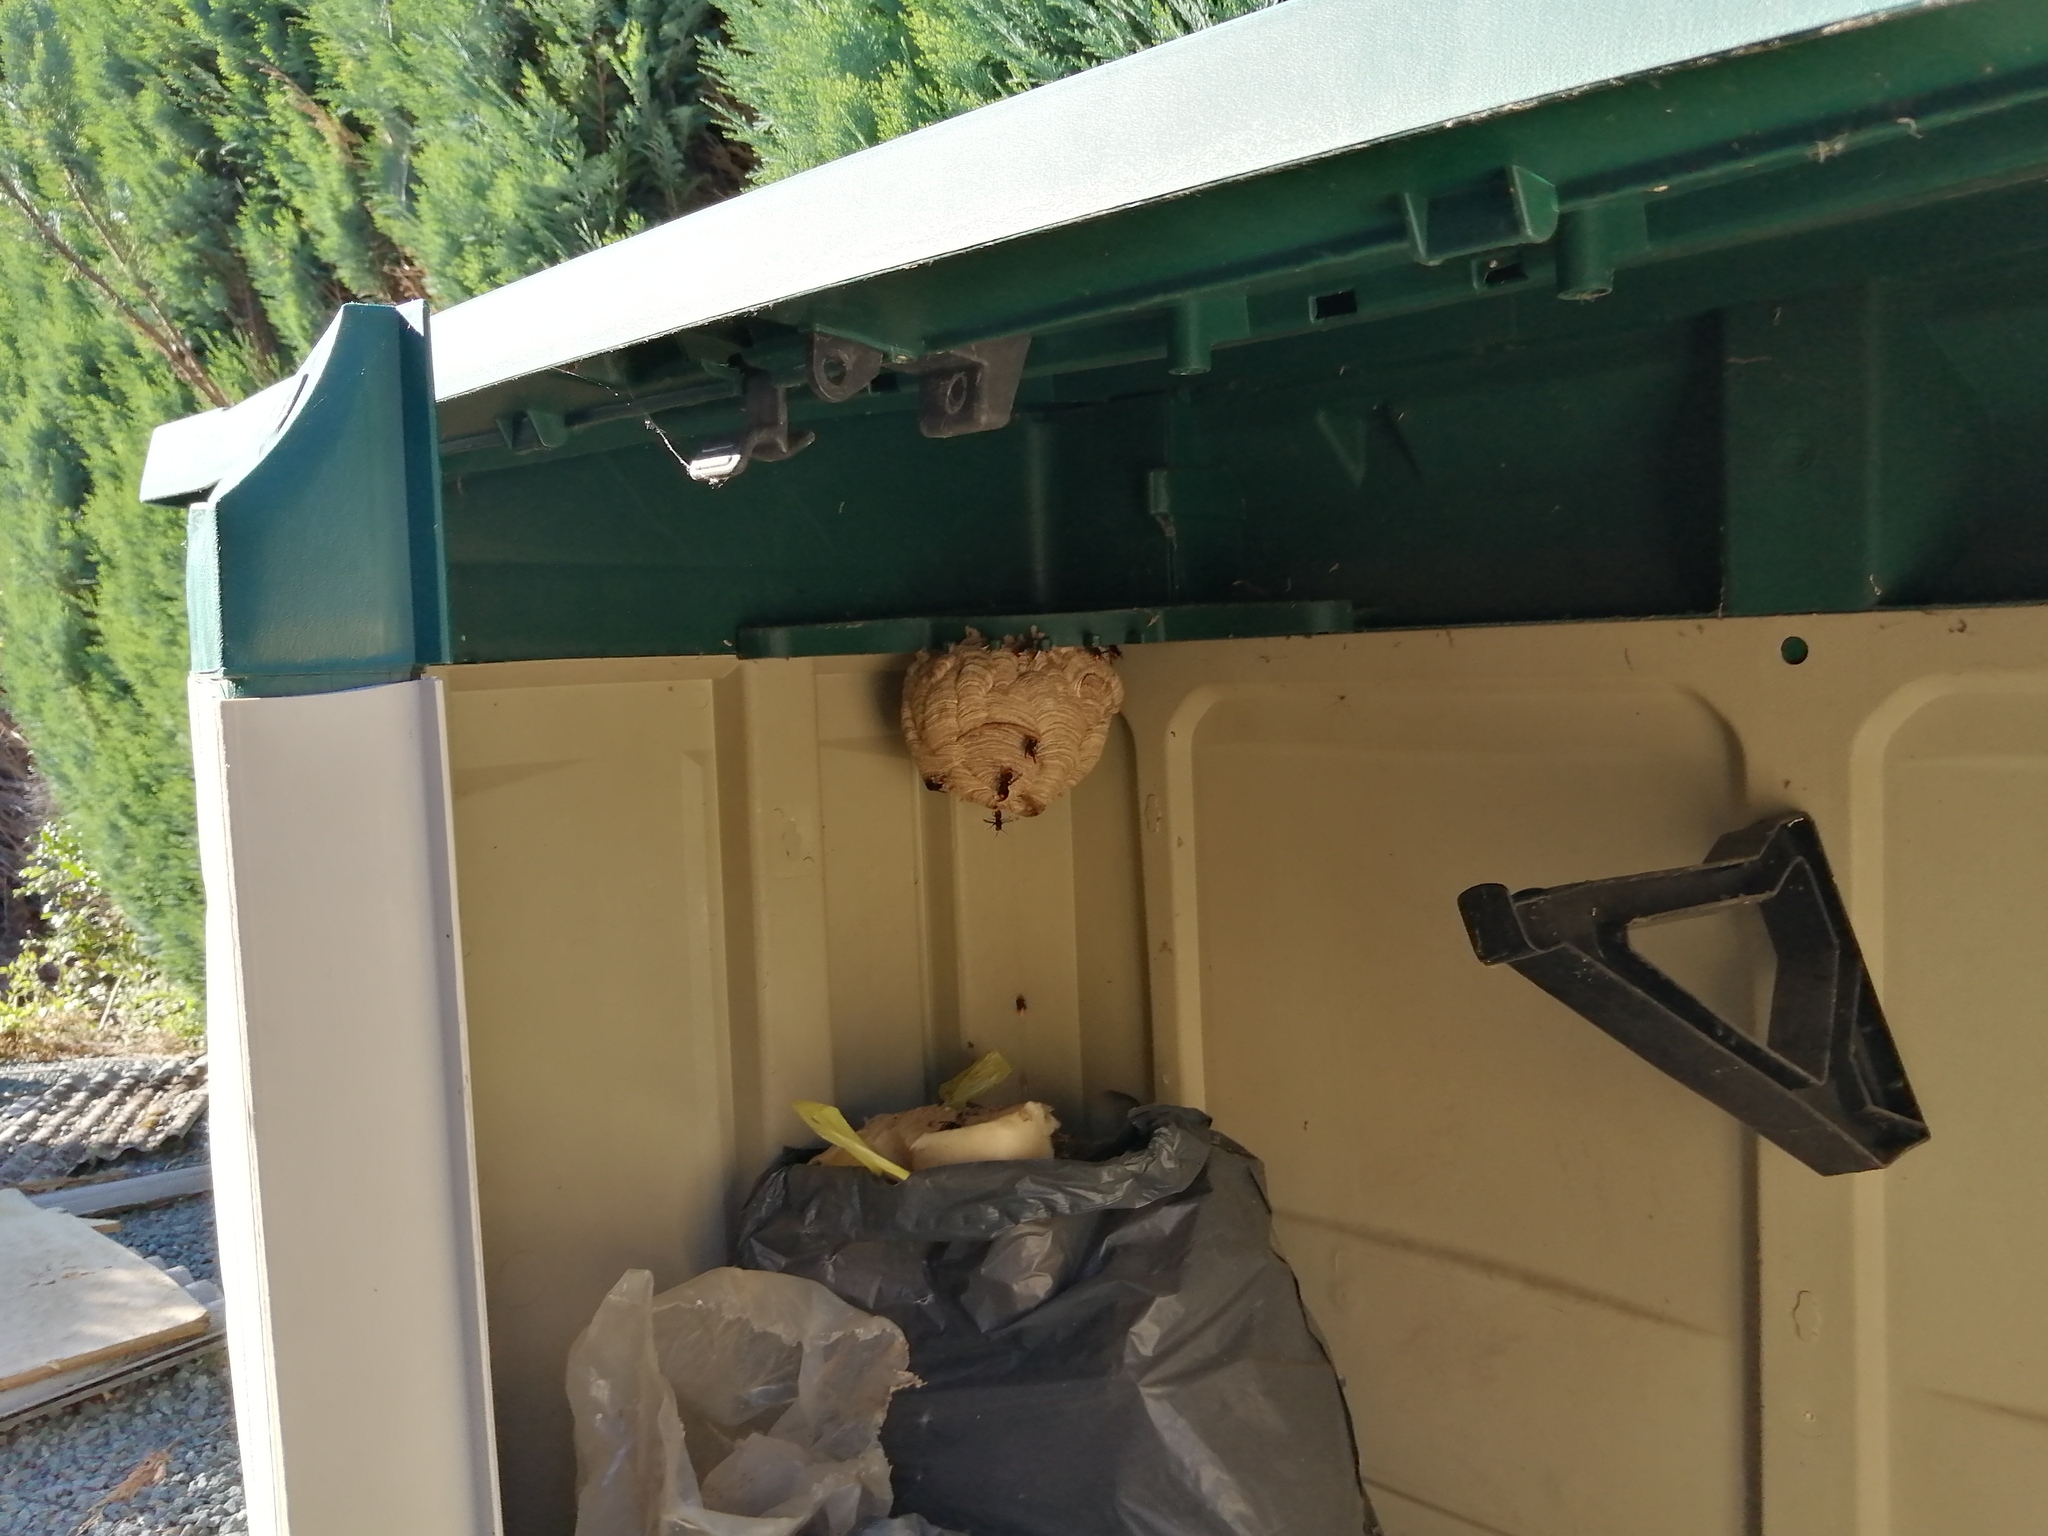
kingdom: Animalia
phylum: Arthropoda
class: Insecta
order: Hymenoptera
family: Vespidae
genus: Vespa
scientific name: Vespa velutina
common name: Asian hornet
